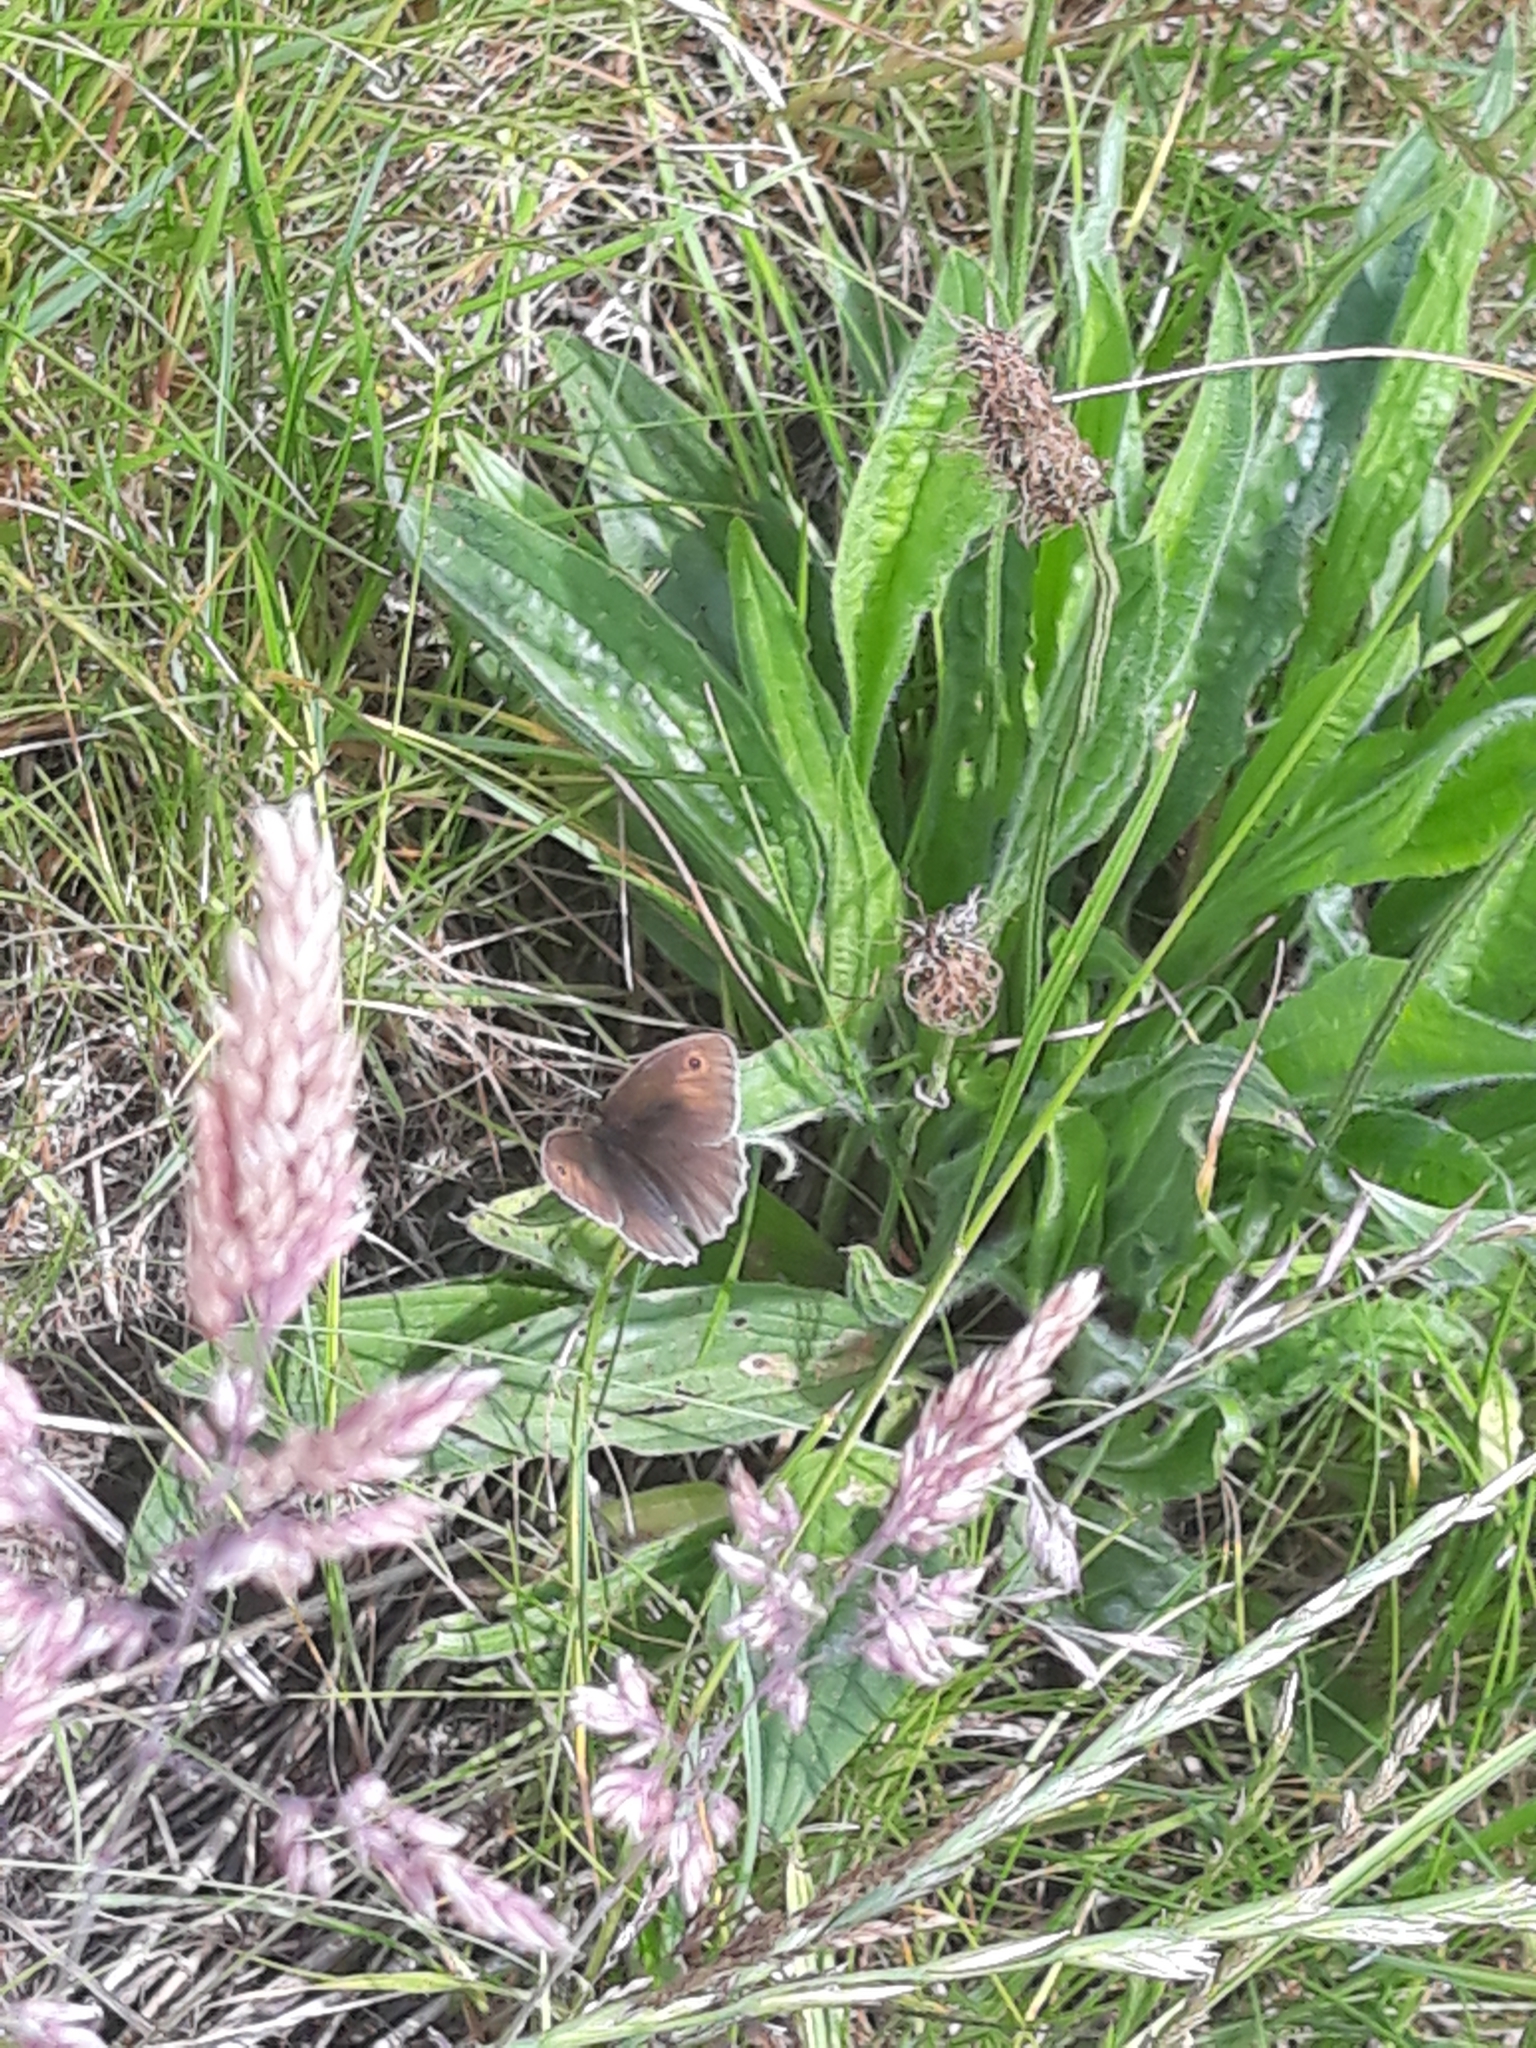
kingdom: Animalia
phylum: Arthropoda
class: Insecta
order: Lepidoptera
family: Nymphalidae
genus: Maniola
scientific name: Maniola jurtina
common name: Meadow brown
